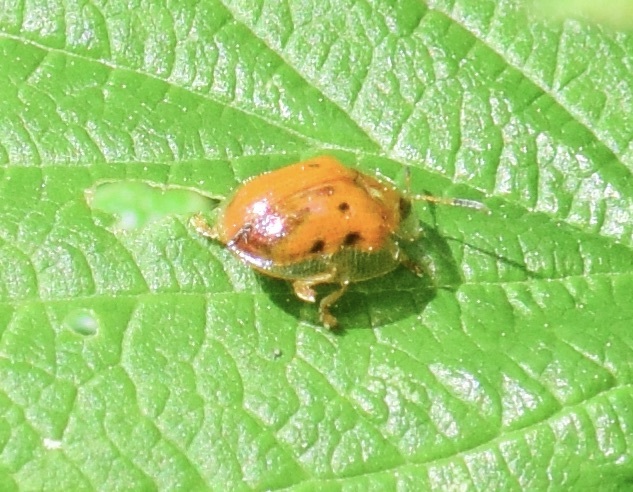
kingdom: Animalia
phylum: Arthropoda
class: Insecta
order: Coleoptera
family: Chrysomelidae
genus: Charidotella
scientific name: Charidotella sexpunctata
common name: Golden tortoise beetle
